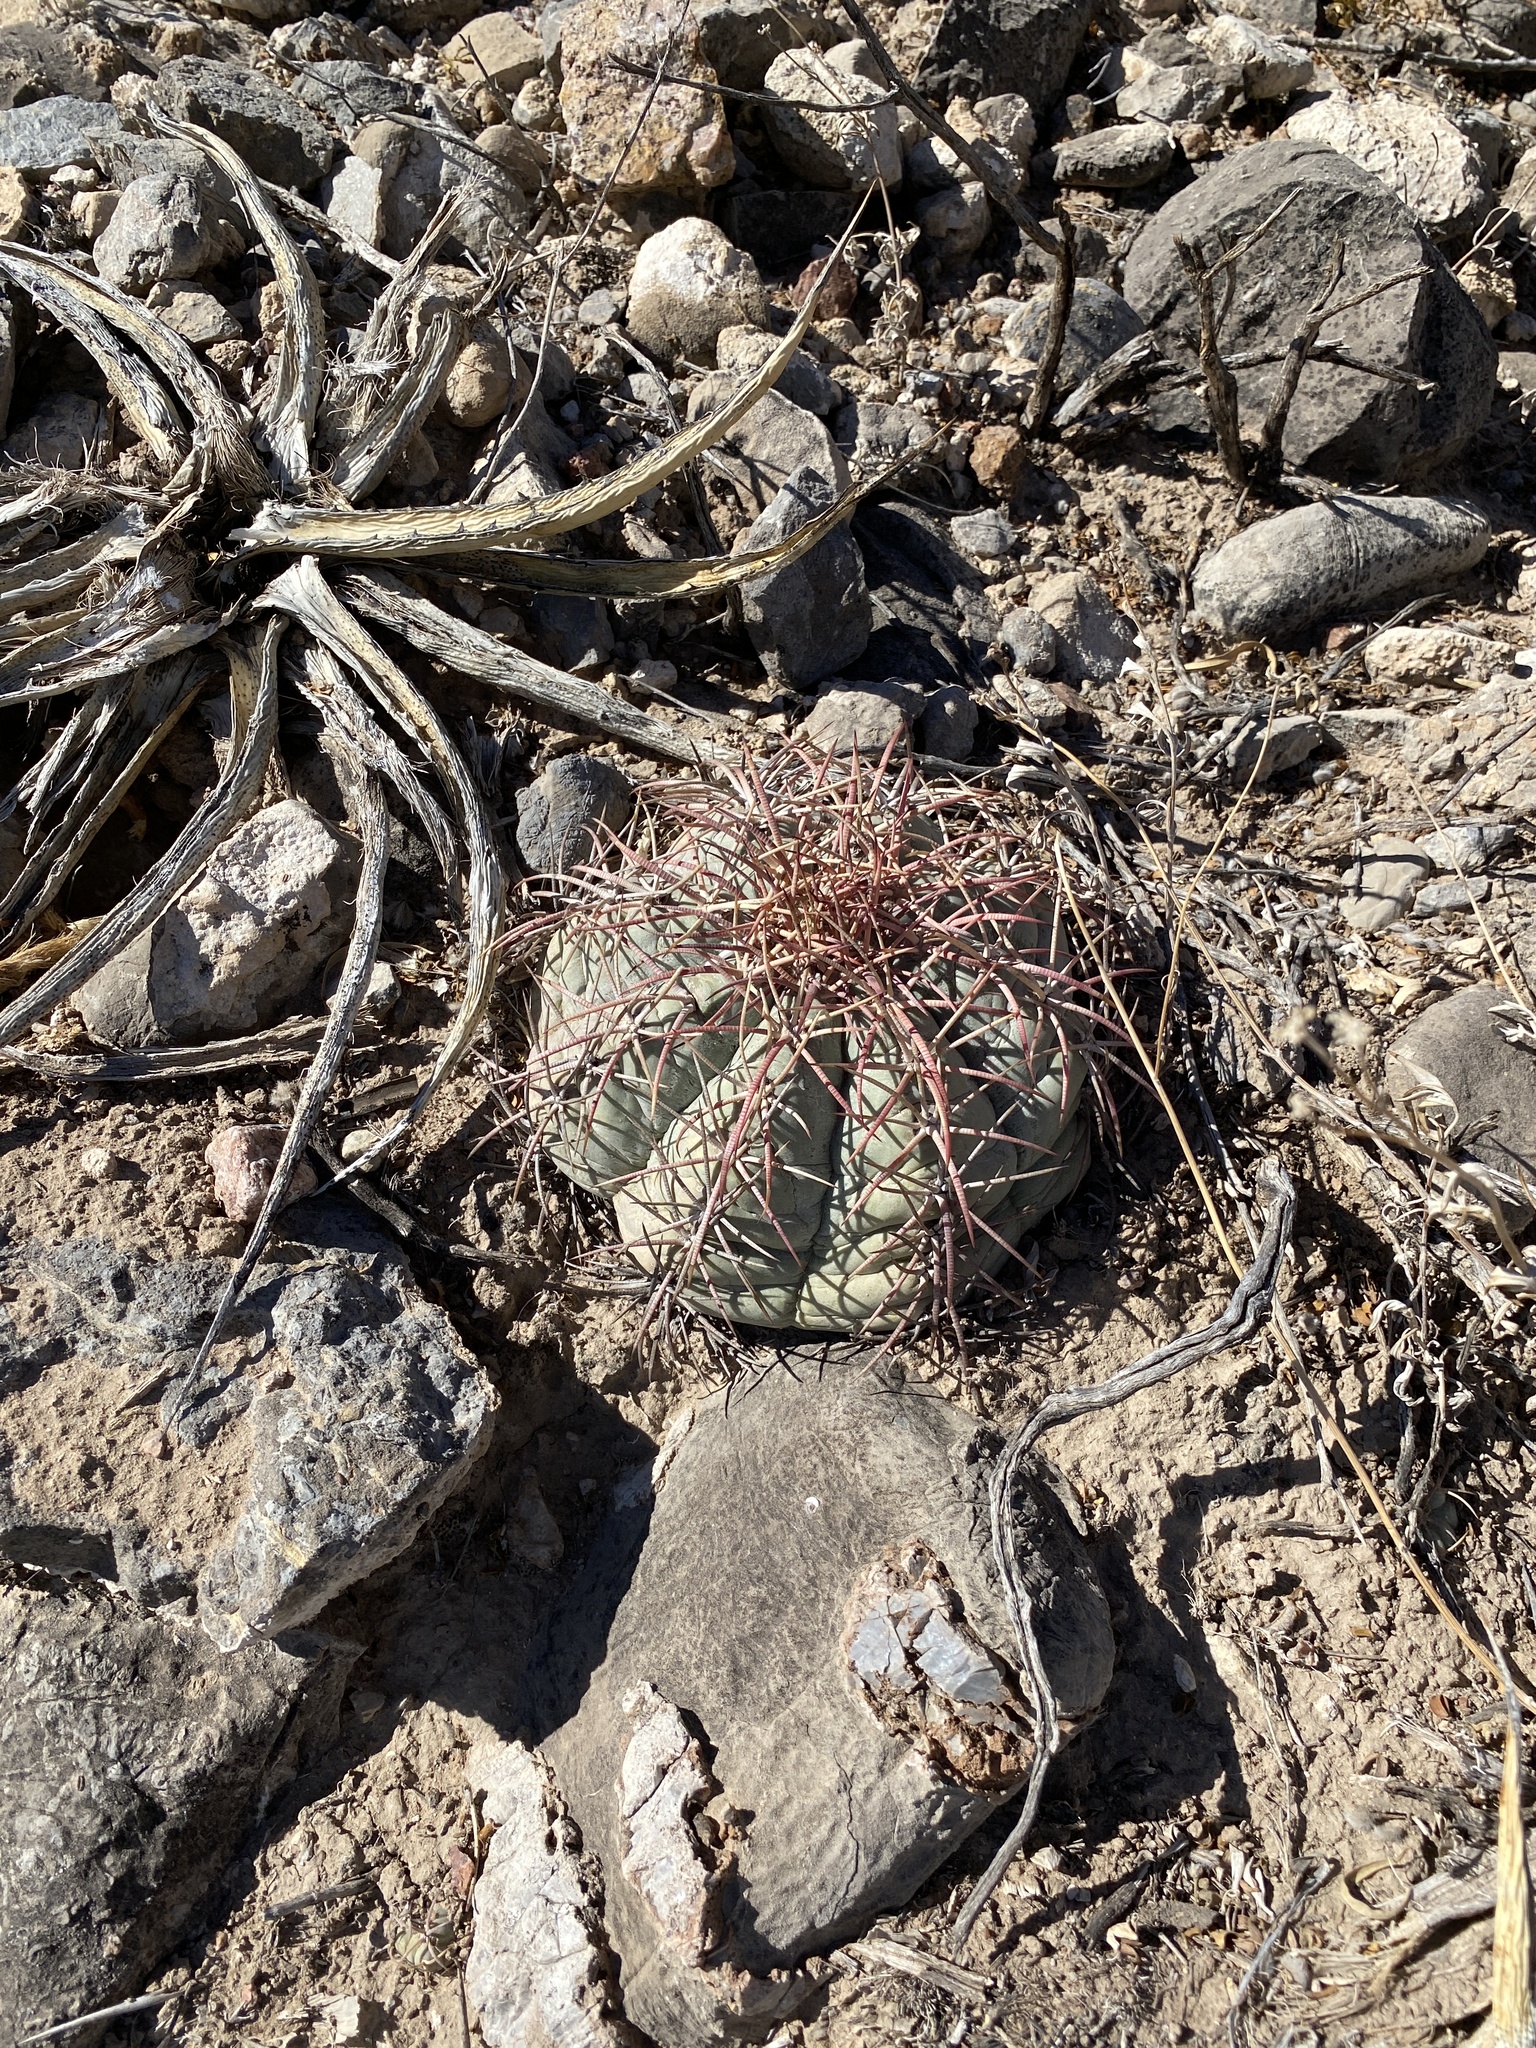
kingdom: Plantae
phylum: Tracheophyta
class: Magnoliopsida
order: Caryophyllales
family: Cactaceae
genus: Echinocactus
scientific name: Echinocactus horizonthalonius
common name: Devilshead
